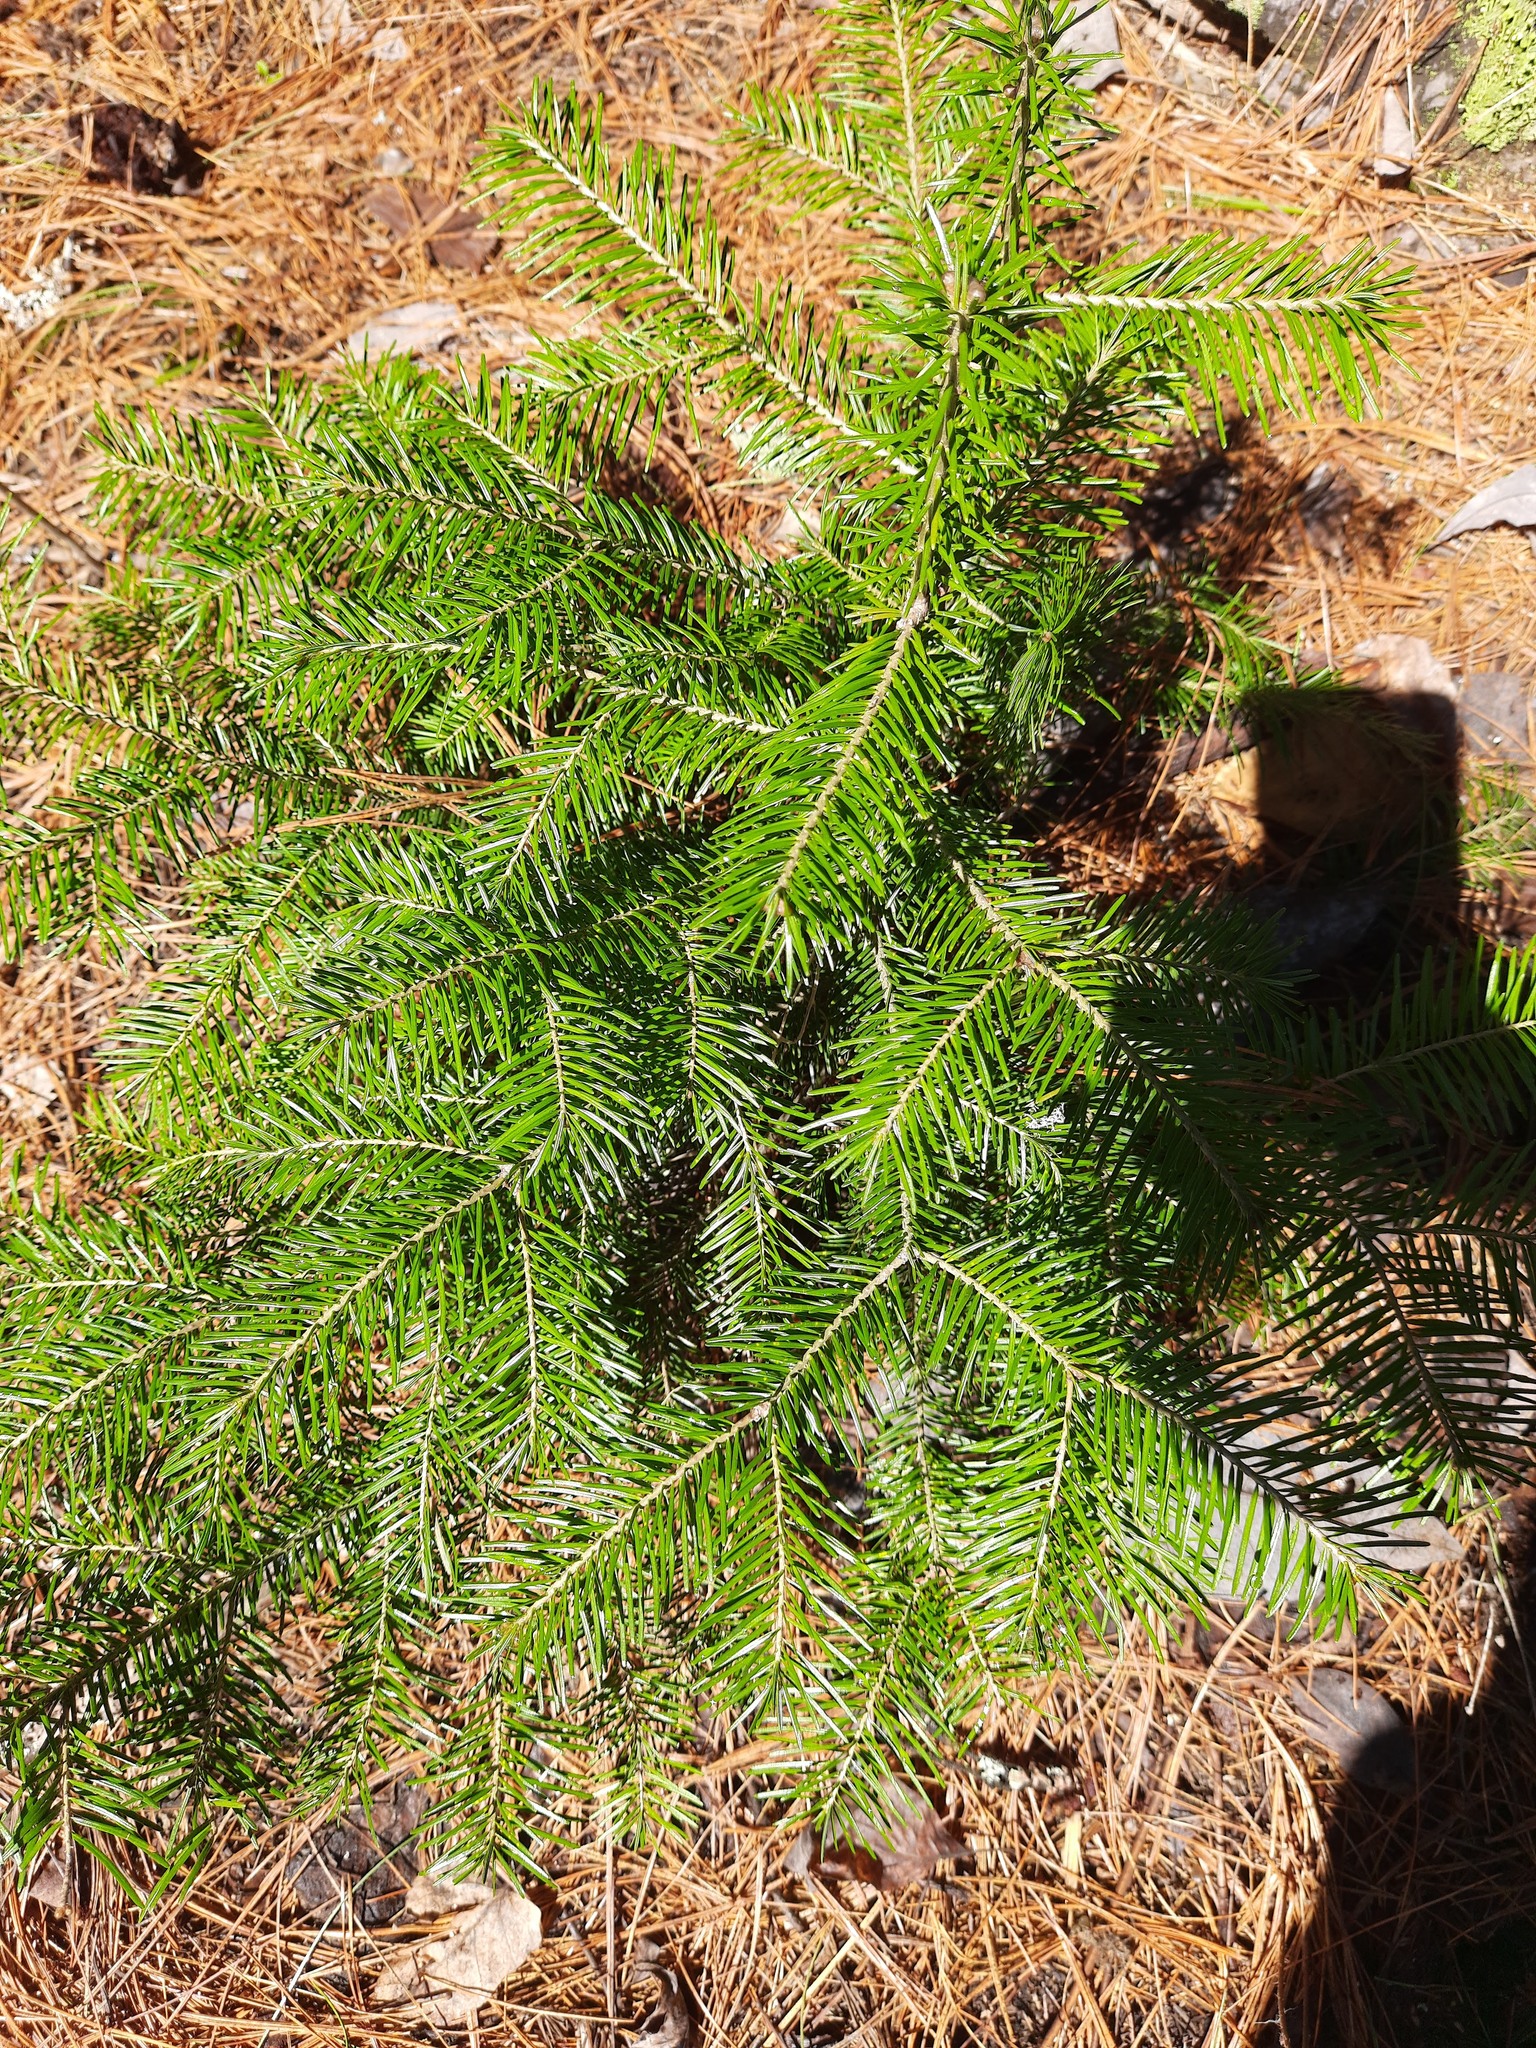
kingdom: Plantae
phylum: Tracheophyta
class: Pinopsida
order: Pinales
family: Pinaceae
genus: Abies
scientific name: Abies sibirica
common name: Siberian fir
